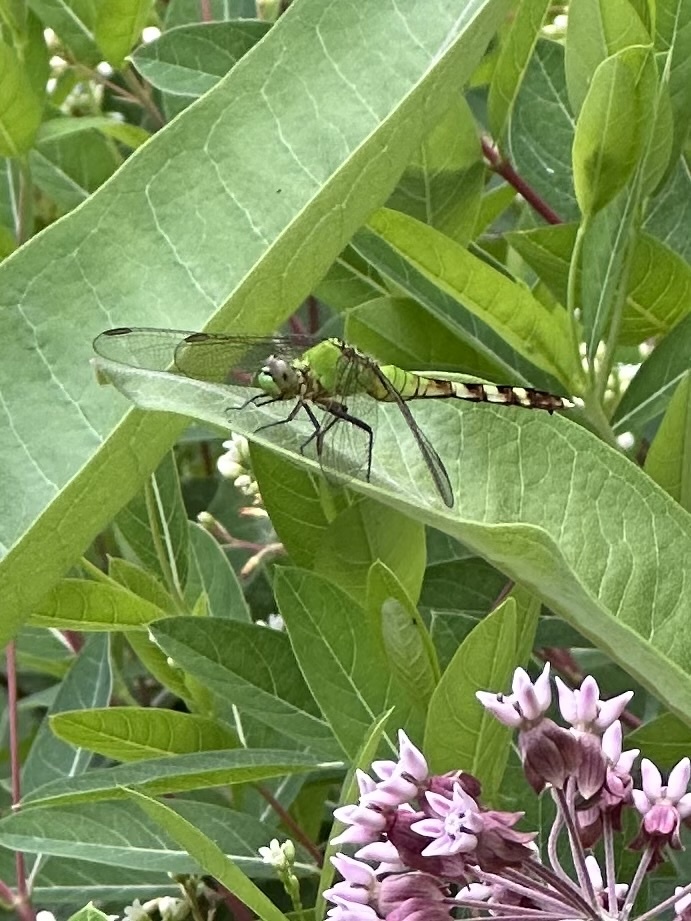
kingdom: Animalia
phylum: Arthropoda
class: Insecta
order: Odonata
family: Libellulidae
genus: Erythemis
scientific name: Erythemis simplicicollis
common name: Eastern pondhawk
